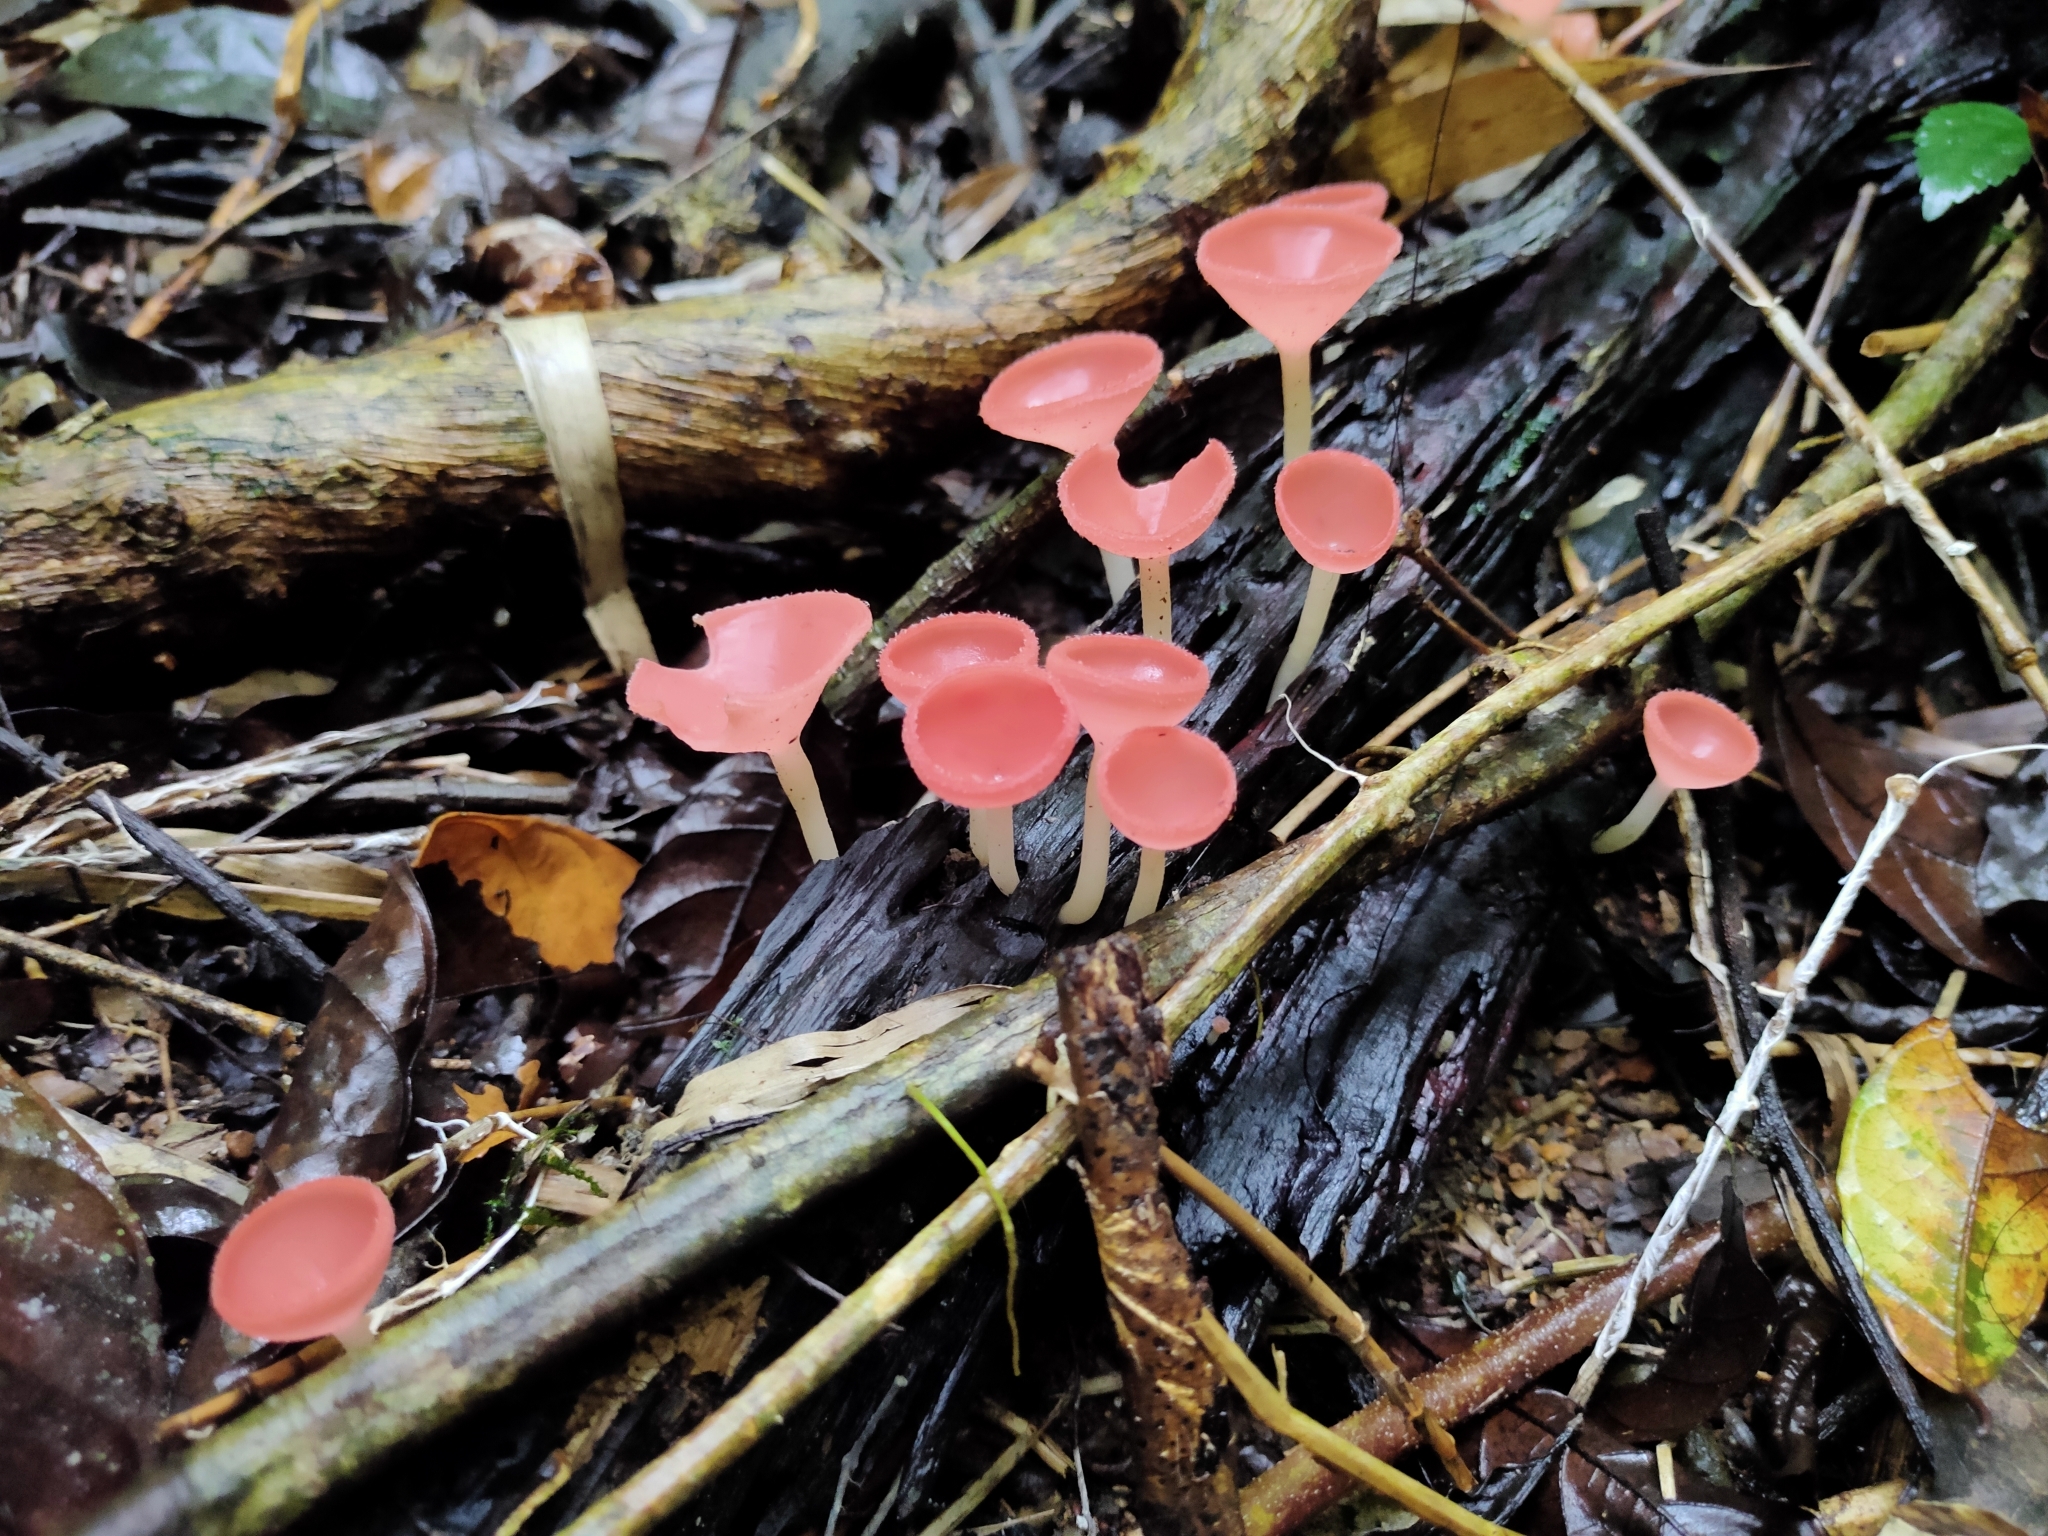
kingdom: Fungi
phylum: Ascomycota
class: Pezizomycetes
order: Pezizales
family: Sarcoscyphaceae
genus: Cookeina
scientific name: Cookeina speciosa
